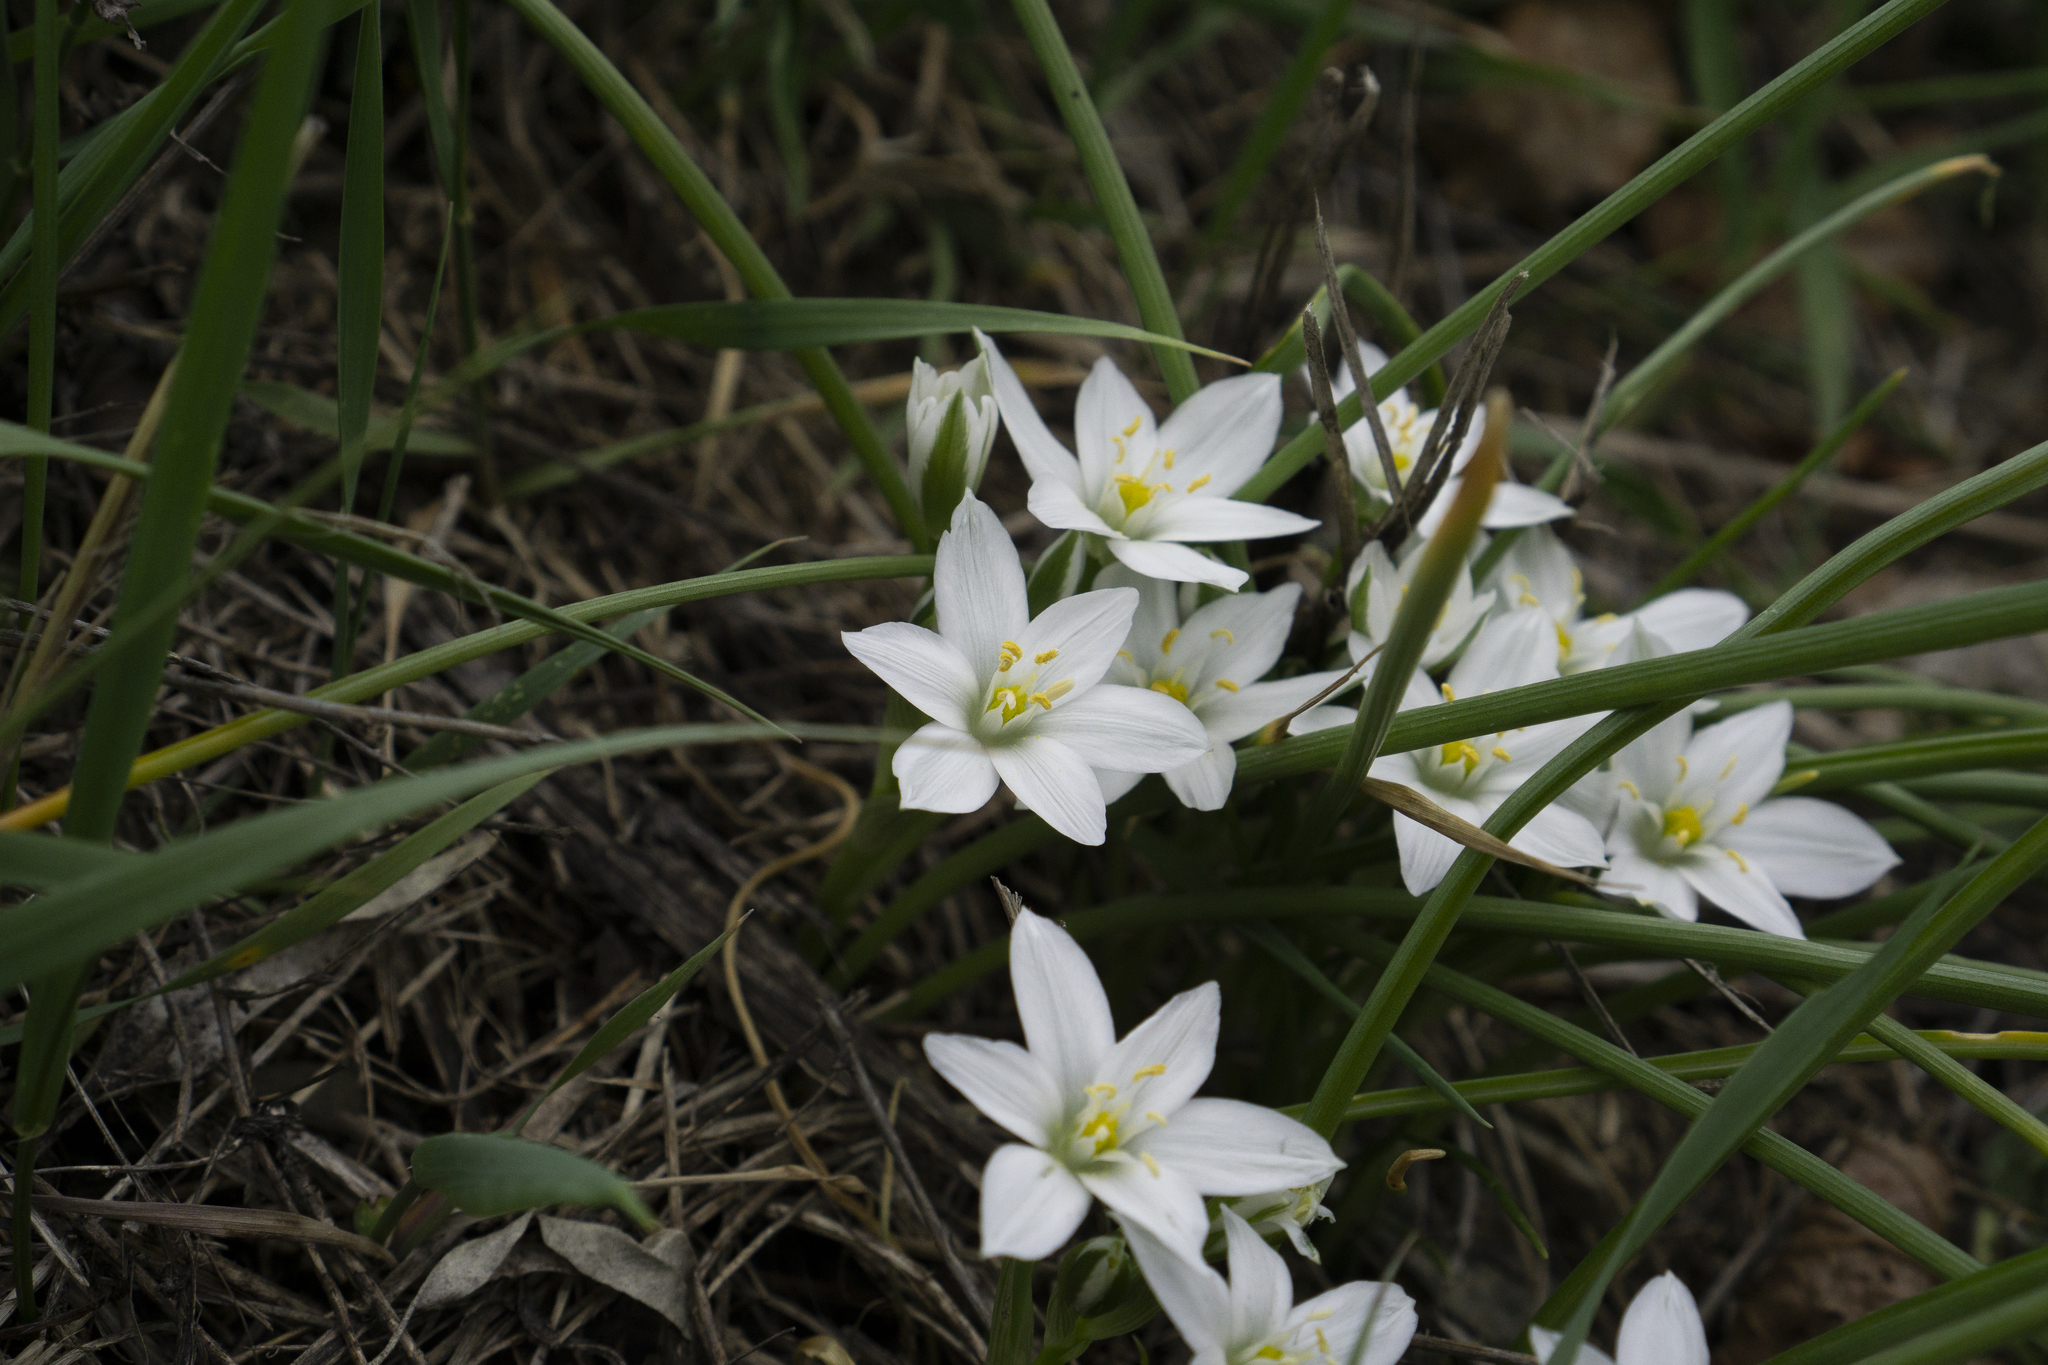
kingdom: Plantae
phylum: Tracheophyta
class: Liliopsida
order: Asparagales
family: Asparagaceae
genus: Ornithogalum
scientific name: Ornithogalum umbellatum
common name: Garden star-of-bethlehem
